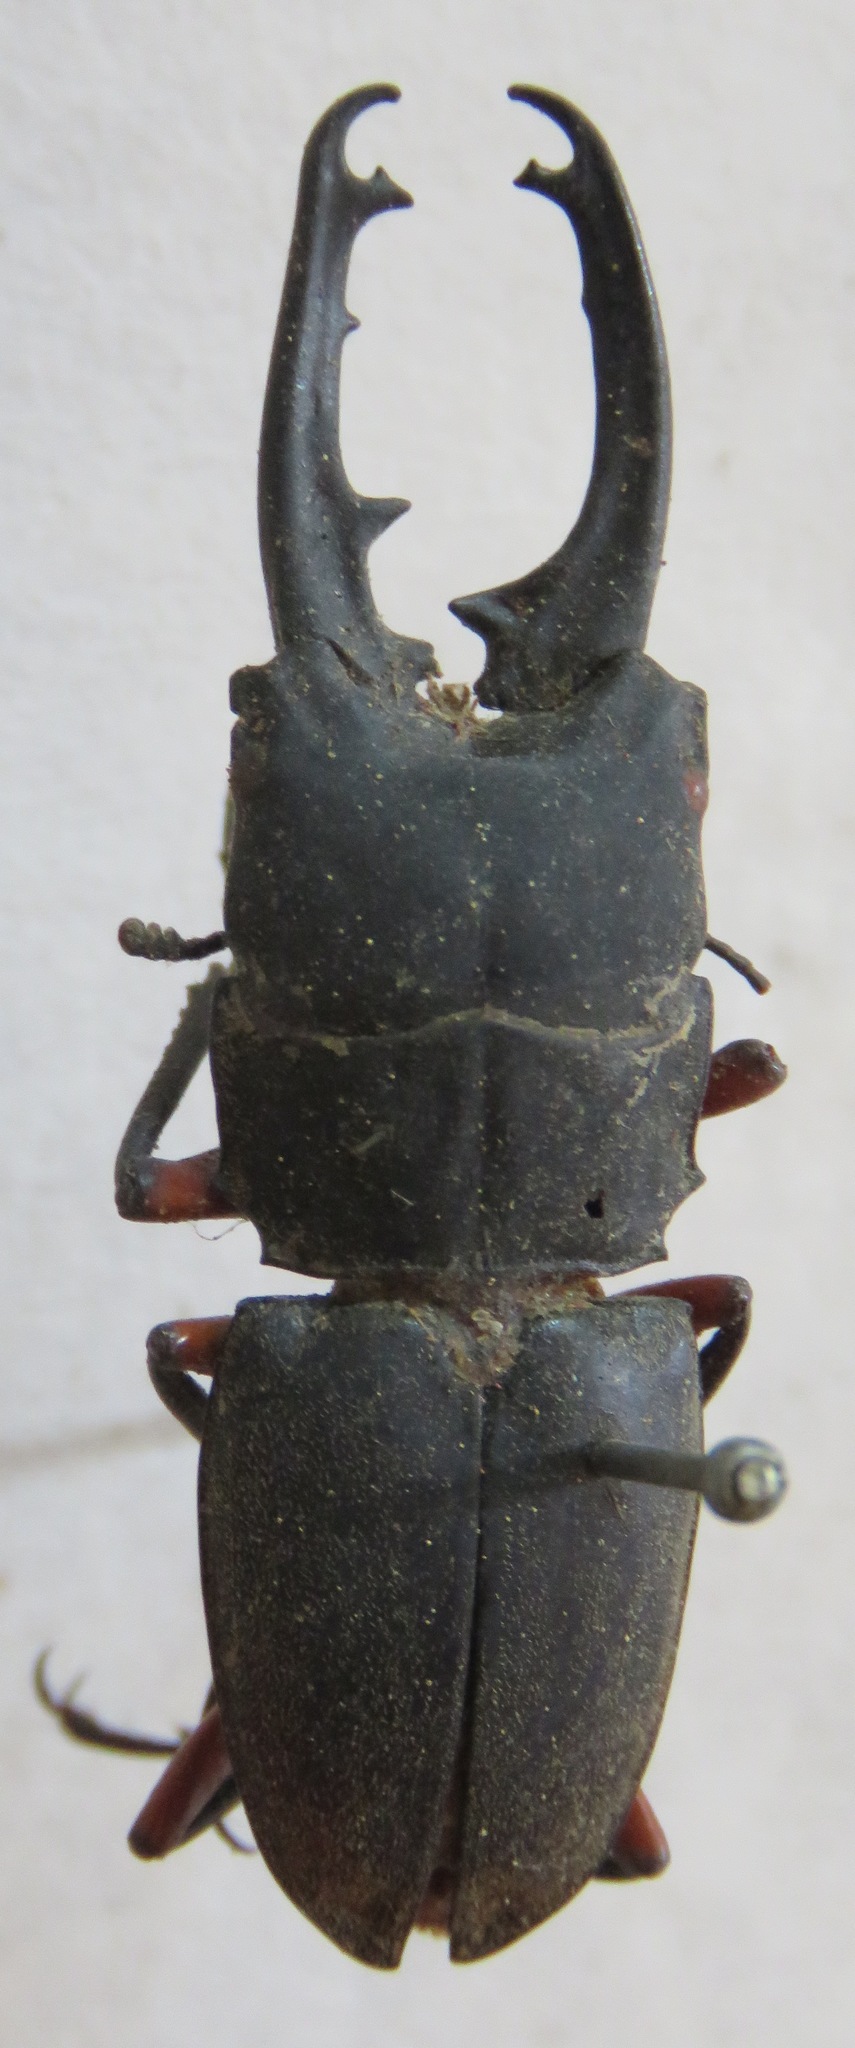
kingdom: Animalia
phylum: Arthropoda
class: Insecta
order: Coleoptera
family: Lucanidae
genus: Leptinopterus
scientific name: Leptinopterus femoratus
